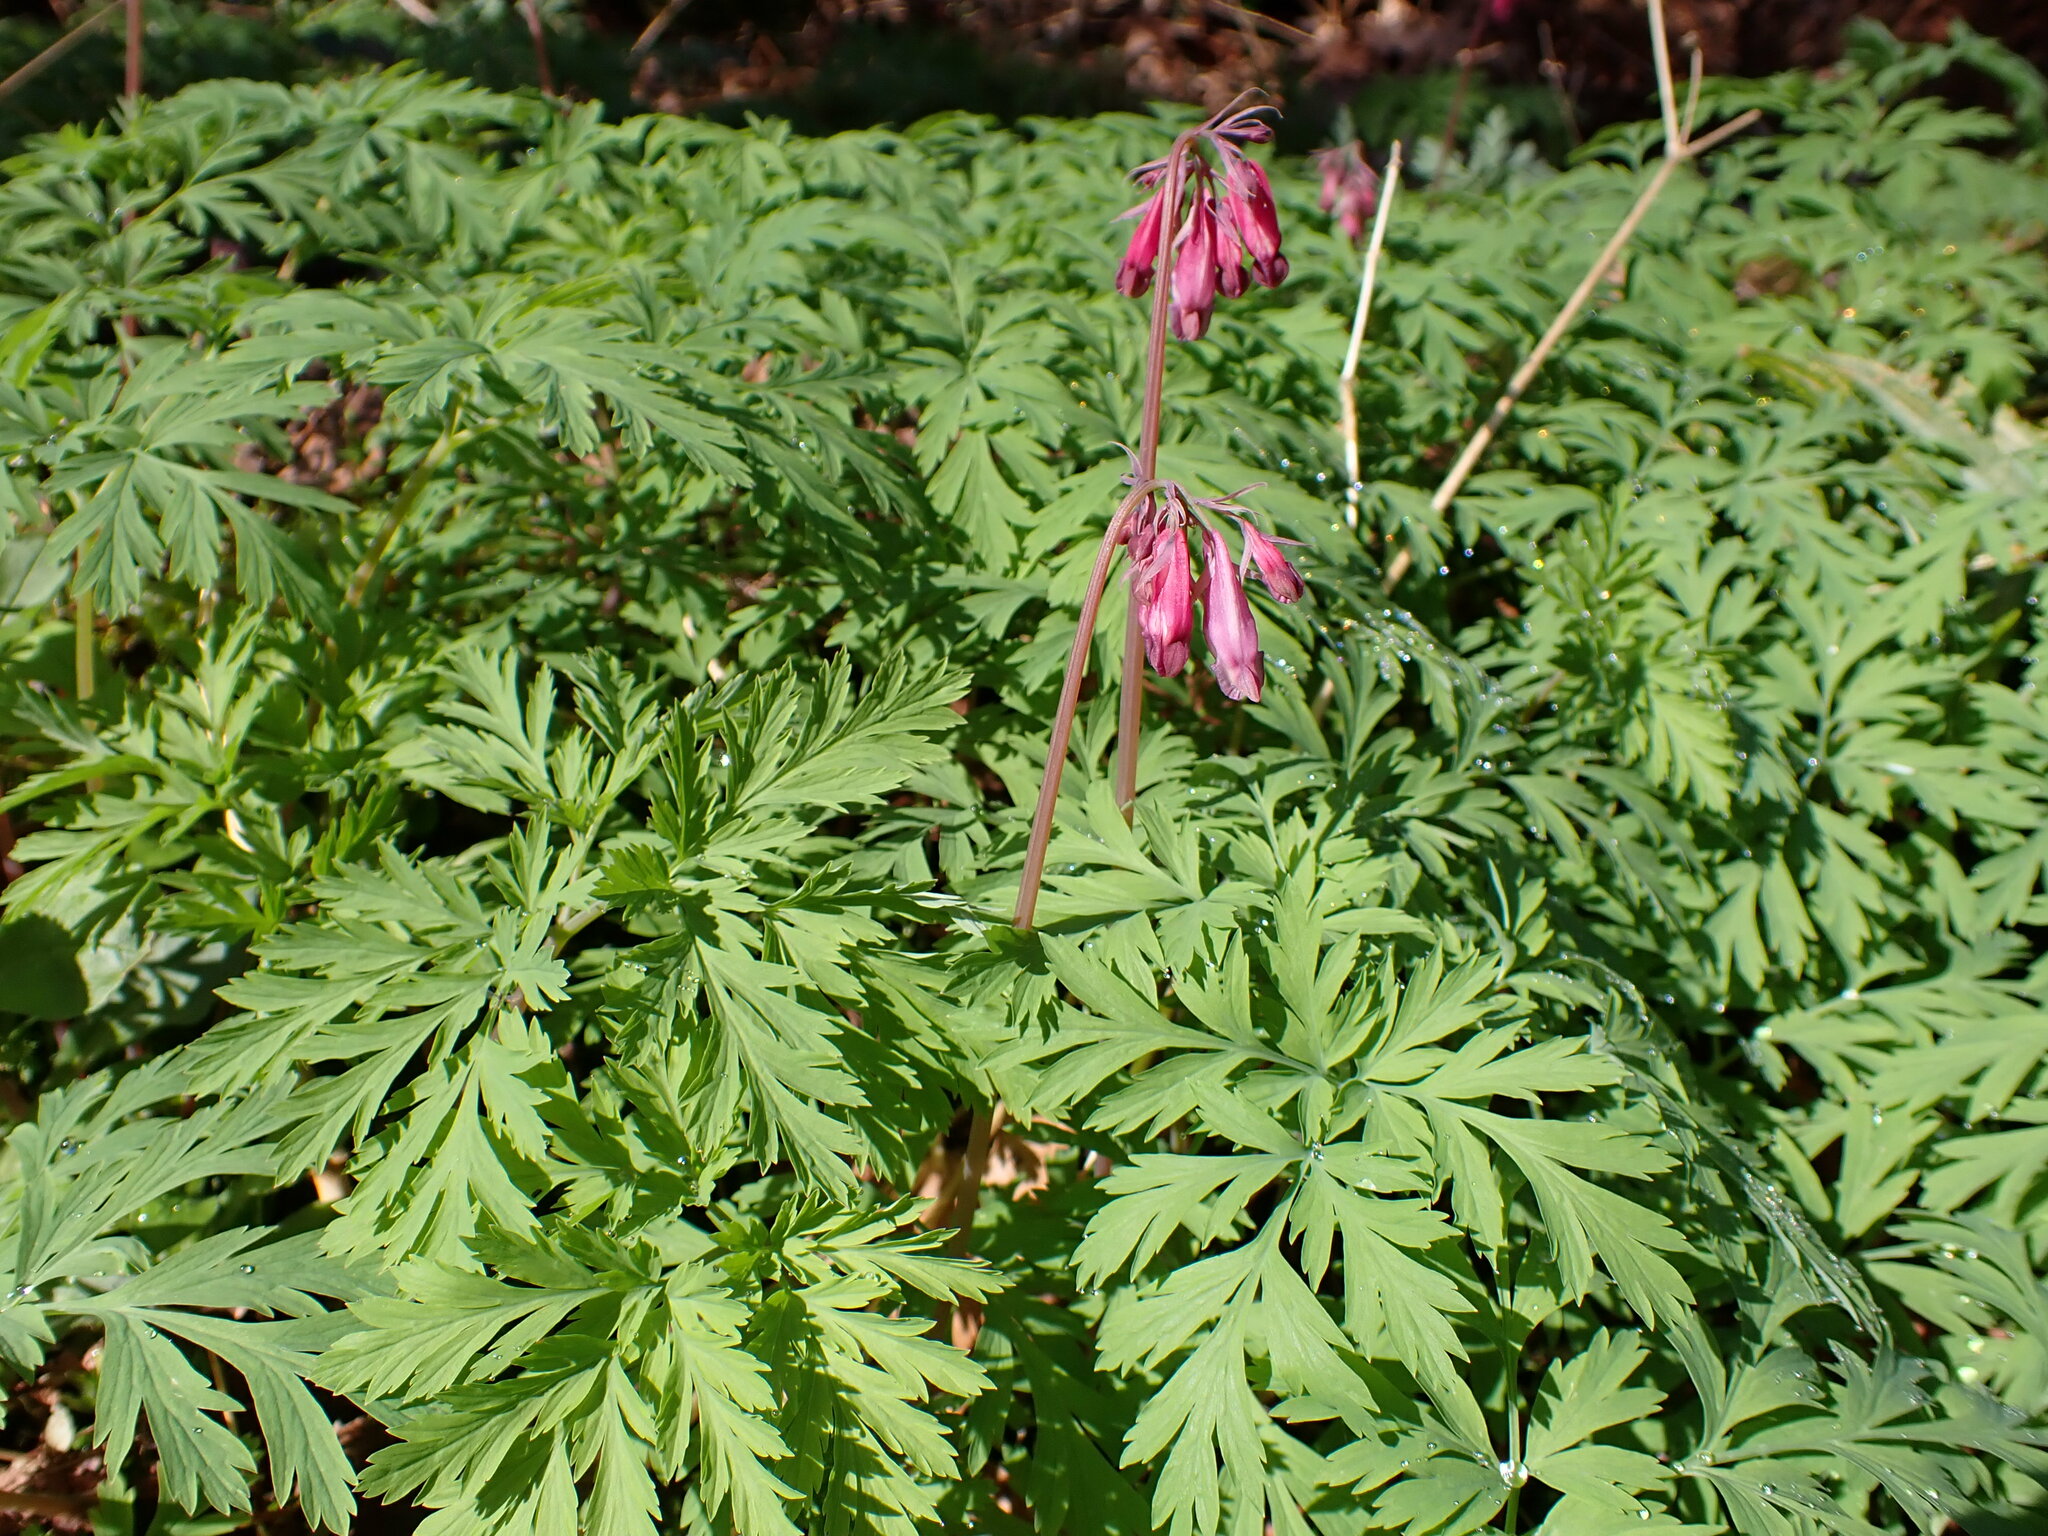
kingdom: Plantae
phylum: Tracheophyta
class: Magnoliopsida
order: Ranunculales
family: Papaveraceae
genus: Dicentra
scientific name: Dicentra formosa
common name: Bleeding-heart
